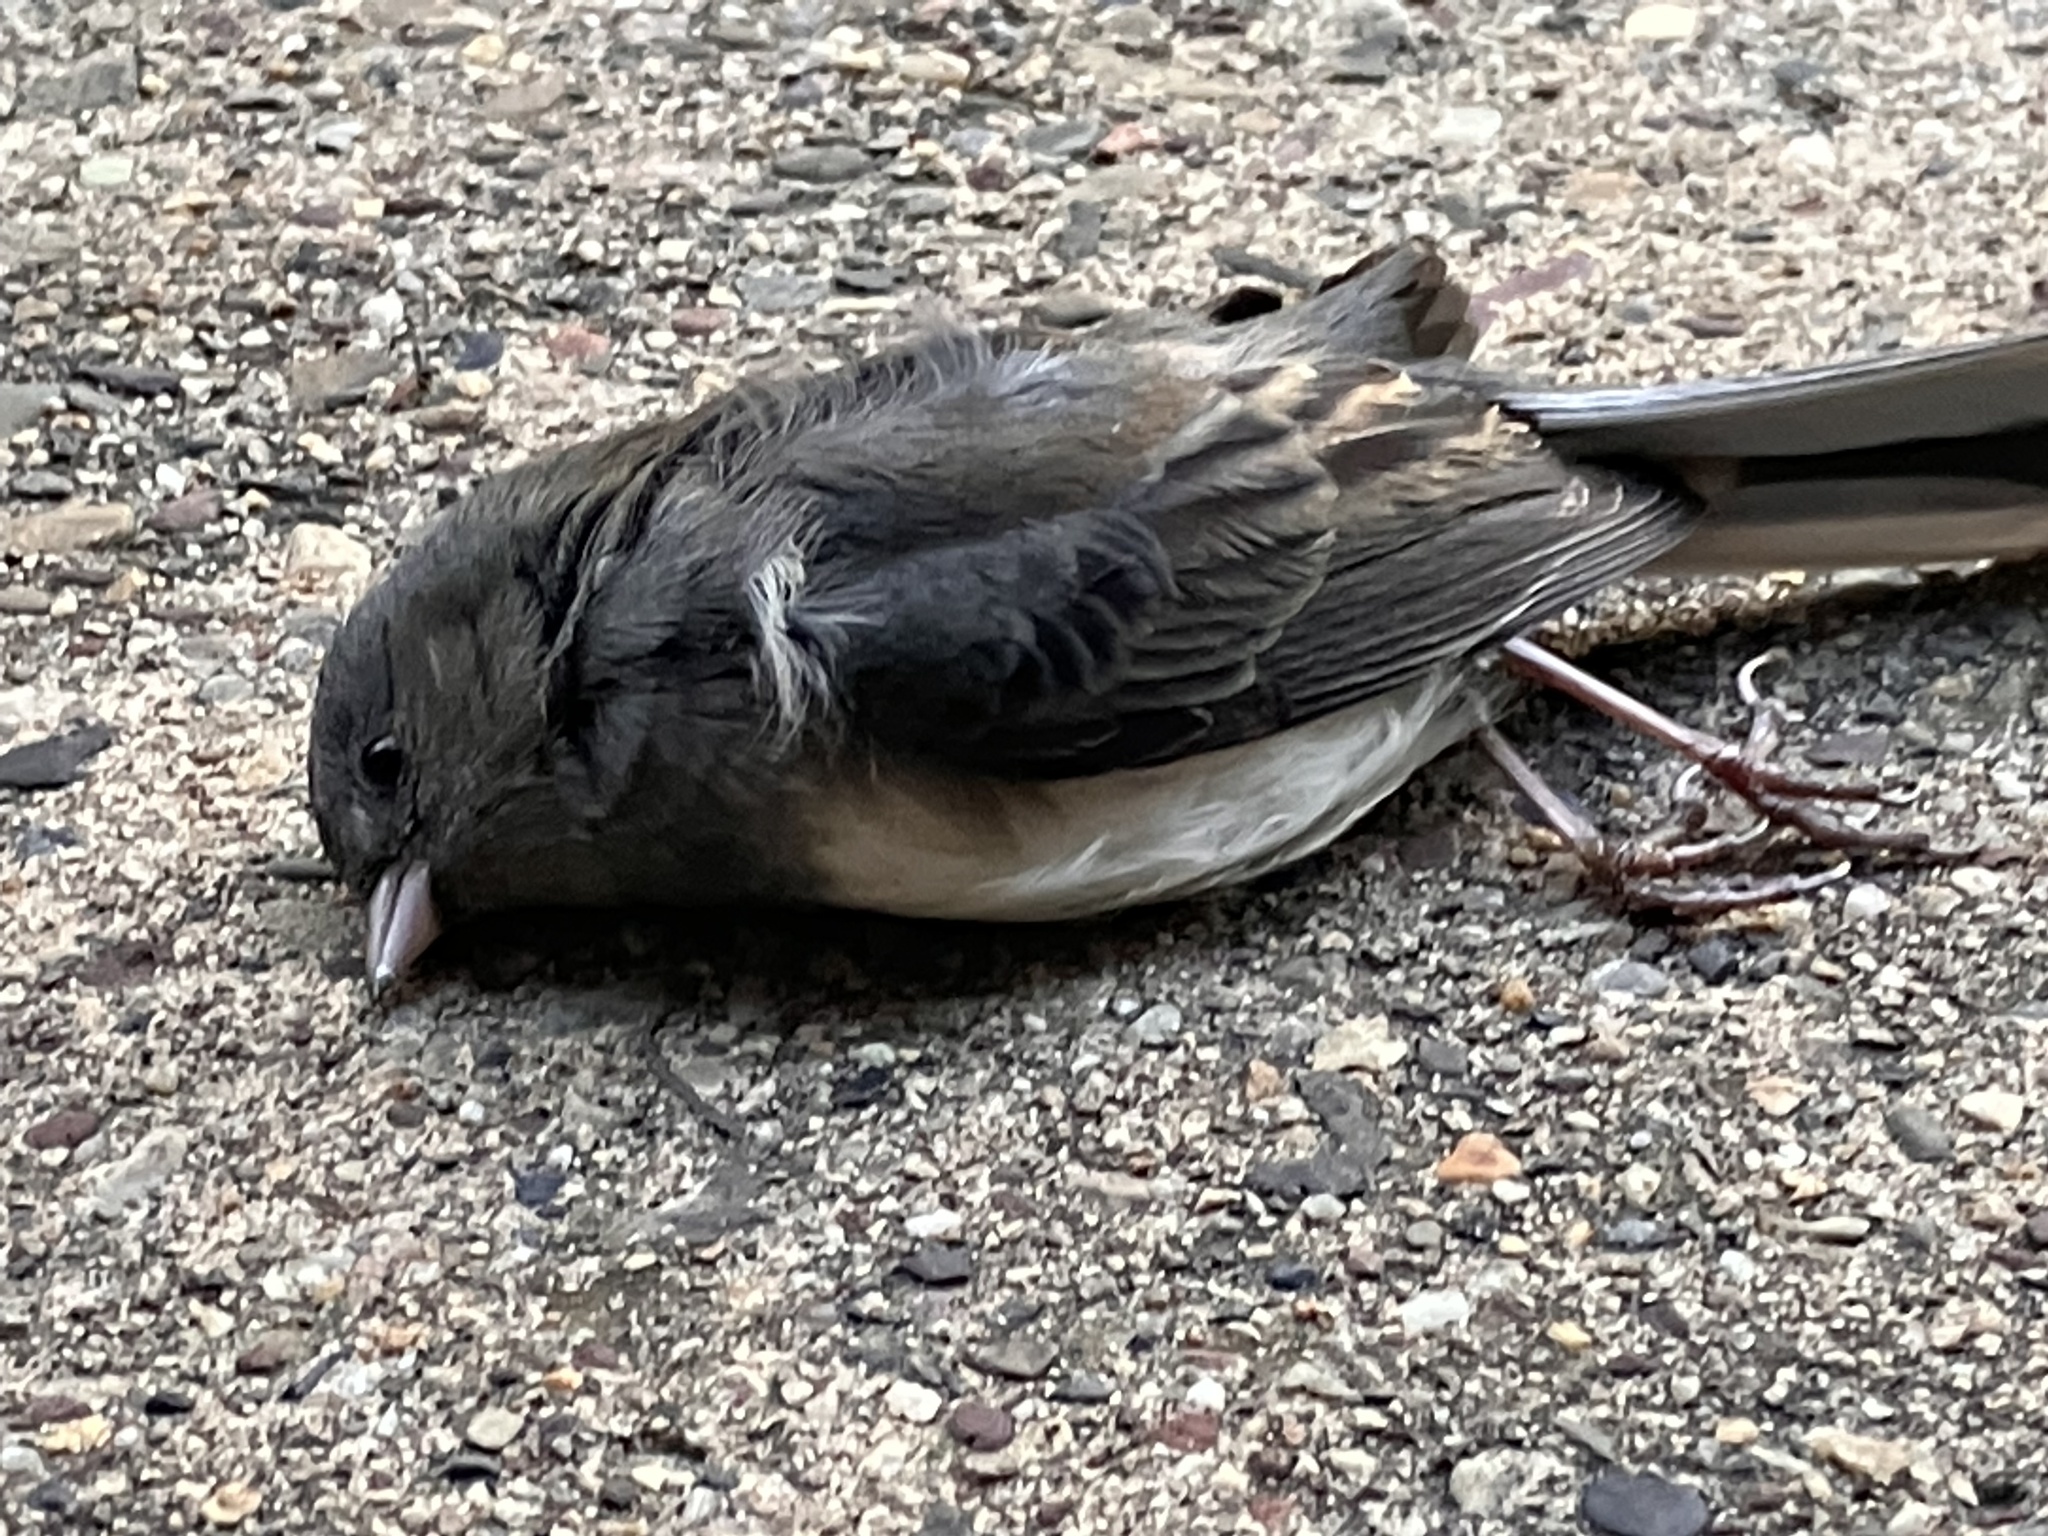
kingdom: Animalia
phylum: Chordata
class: Aves
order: Passeriformes
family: Passerellidae
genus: Junco
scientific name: Junco hyemalis
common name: Dark-eyed junco
